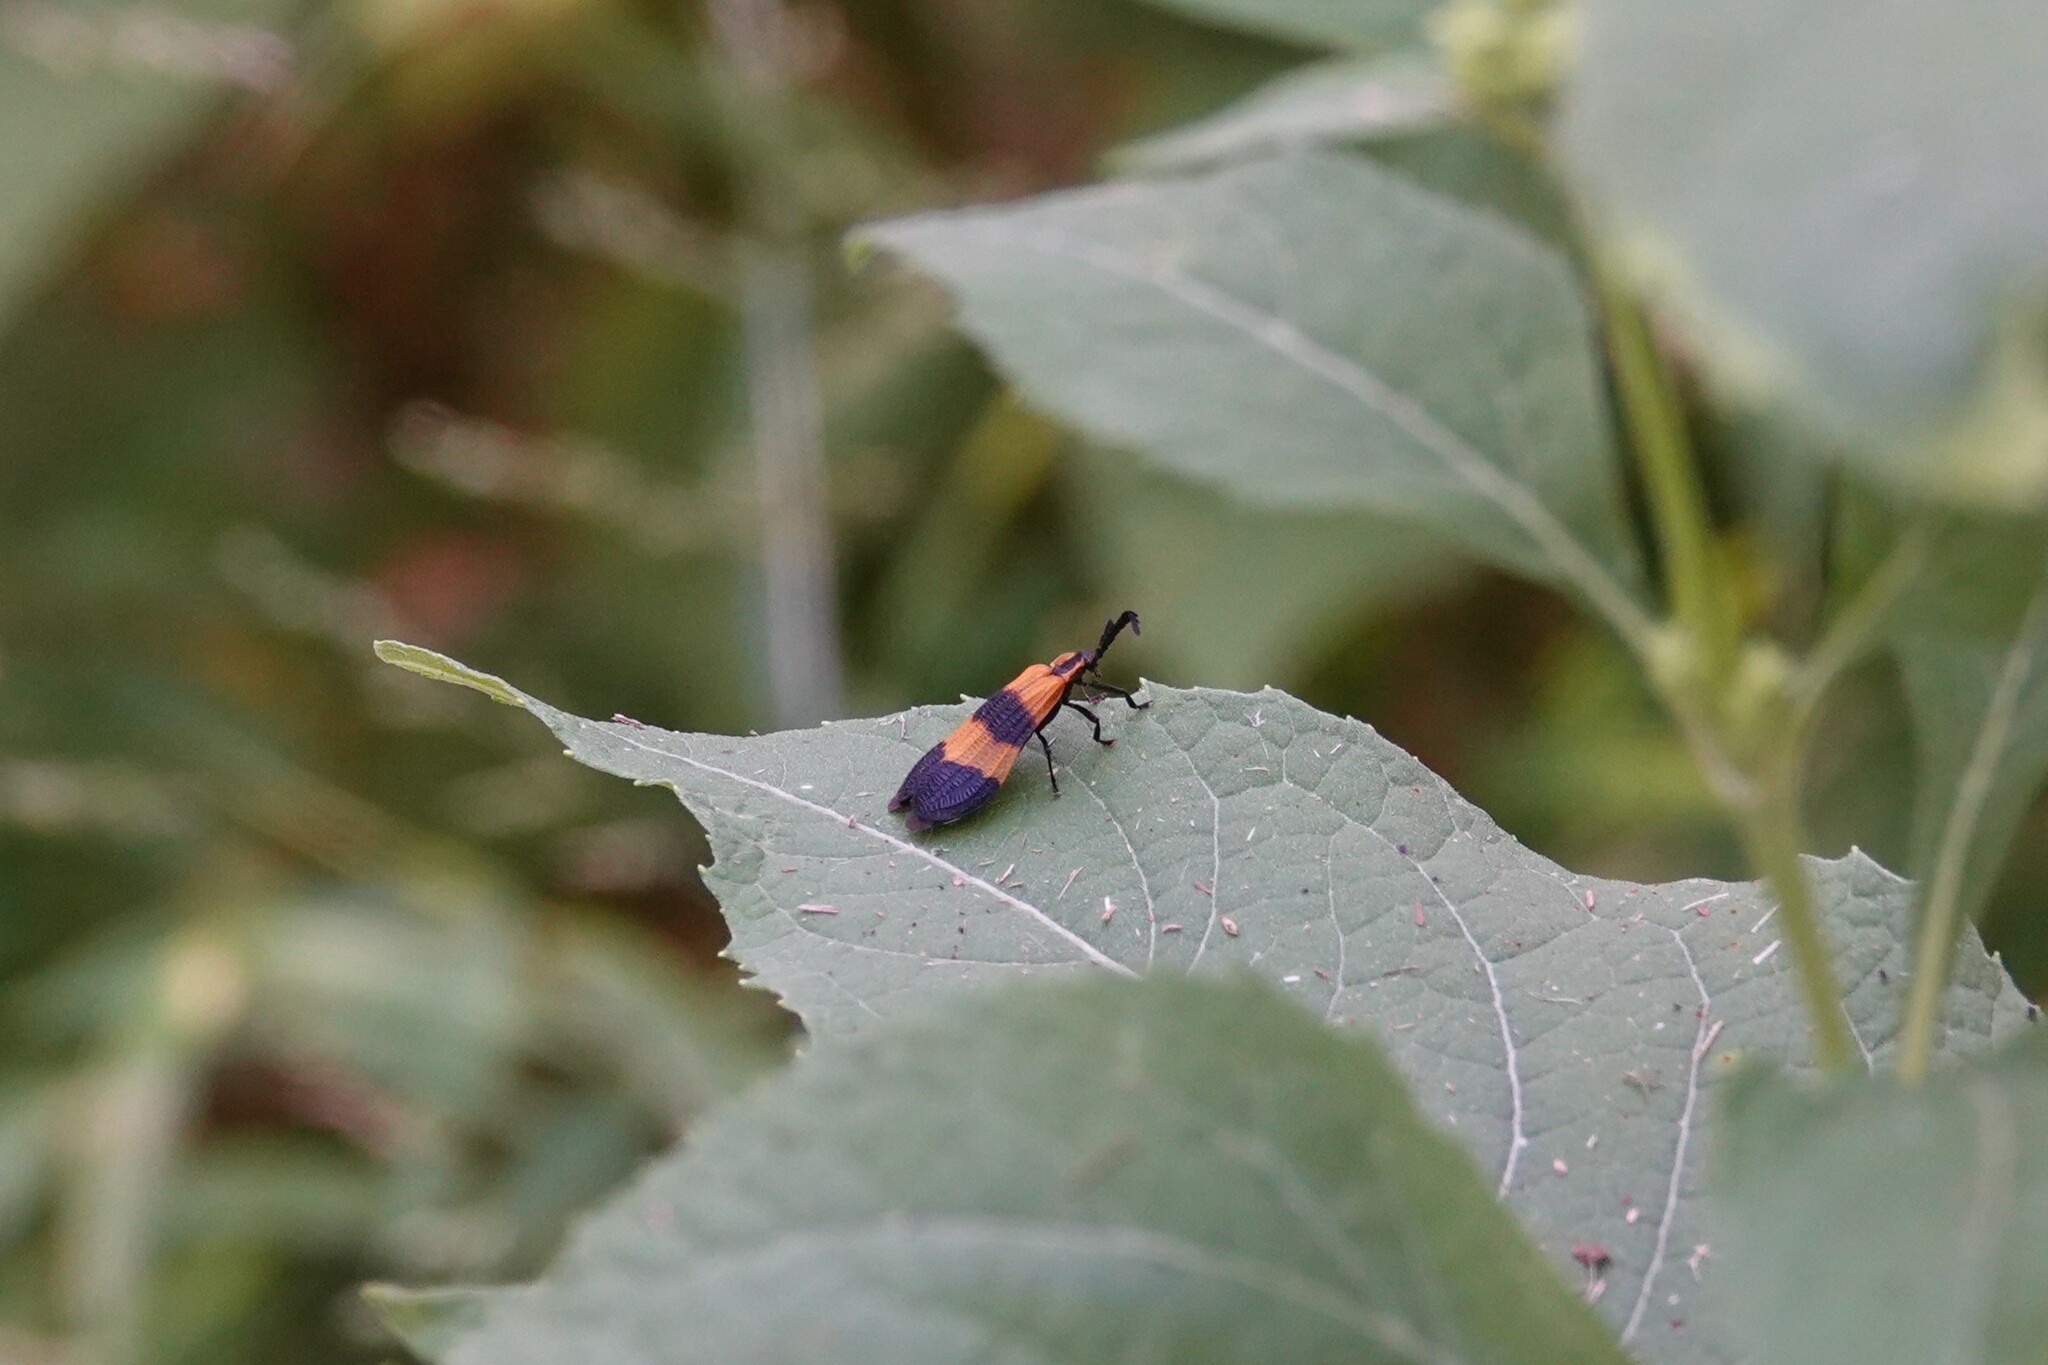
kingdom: Animalia
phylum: Arthropoda
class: Insecta
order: Coleoptera
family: Lycidae
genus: Calopteron
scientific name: Calopteron terminale
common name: End band net-winged beetle
